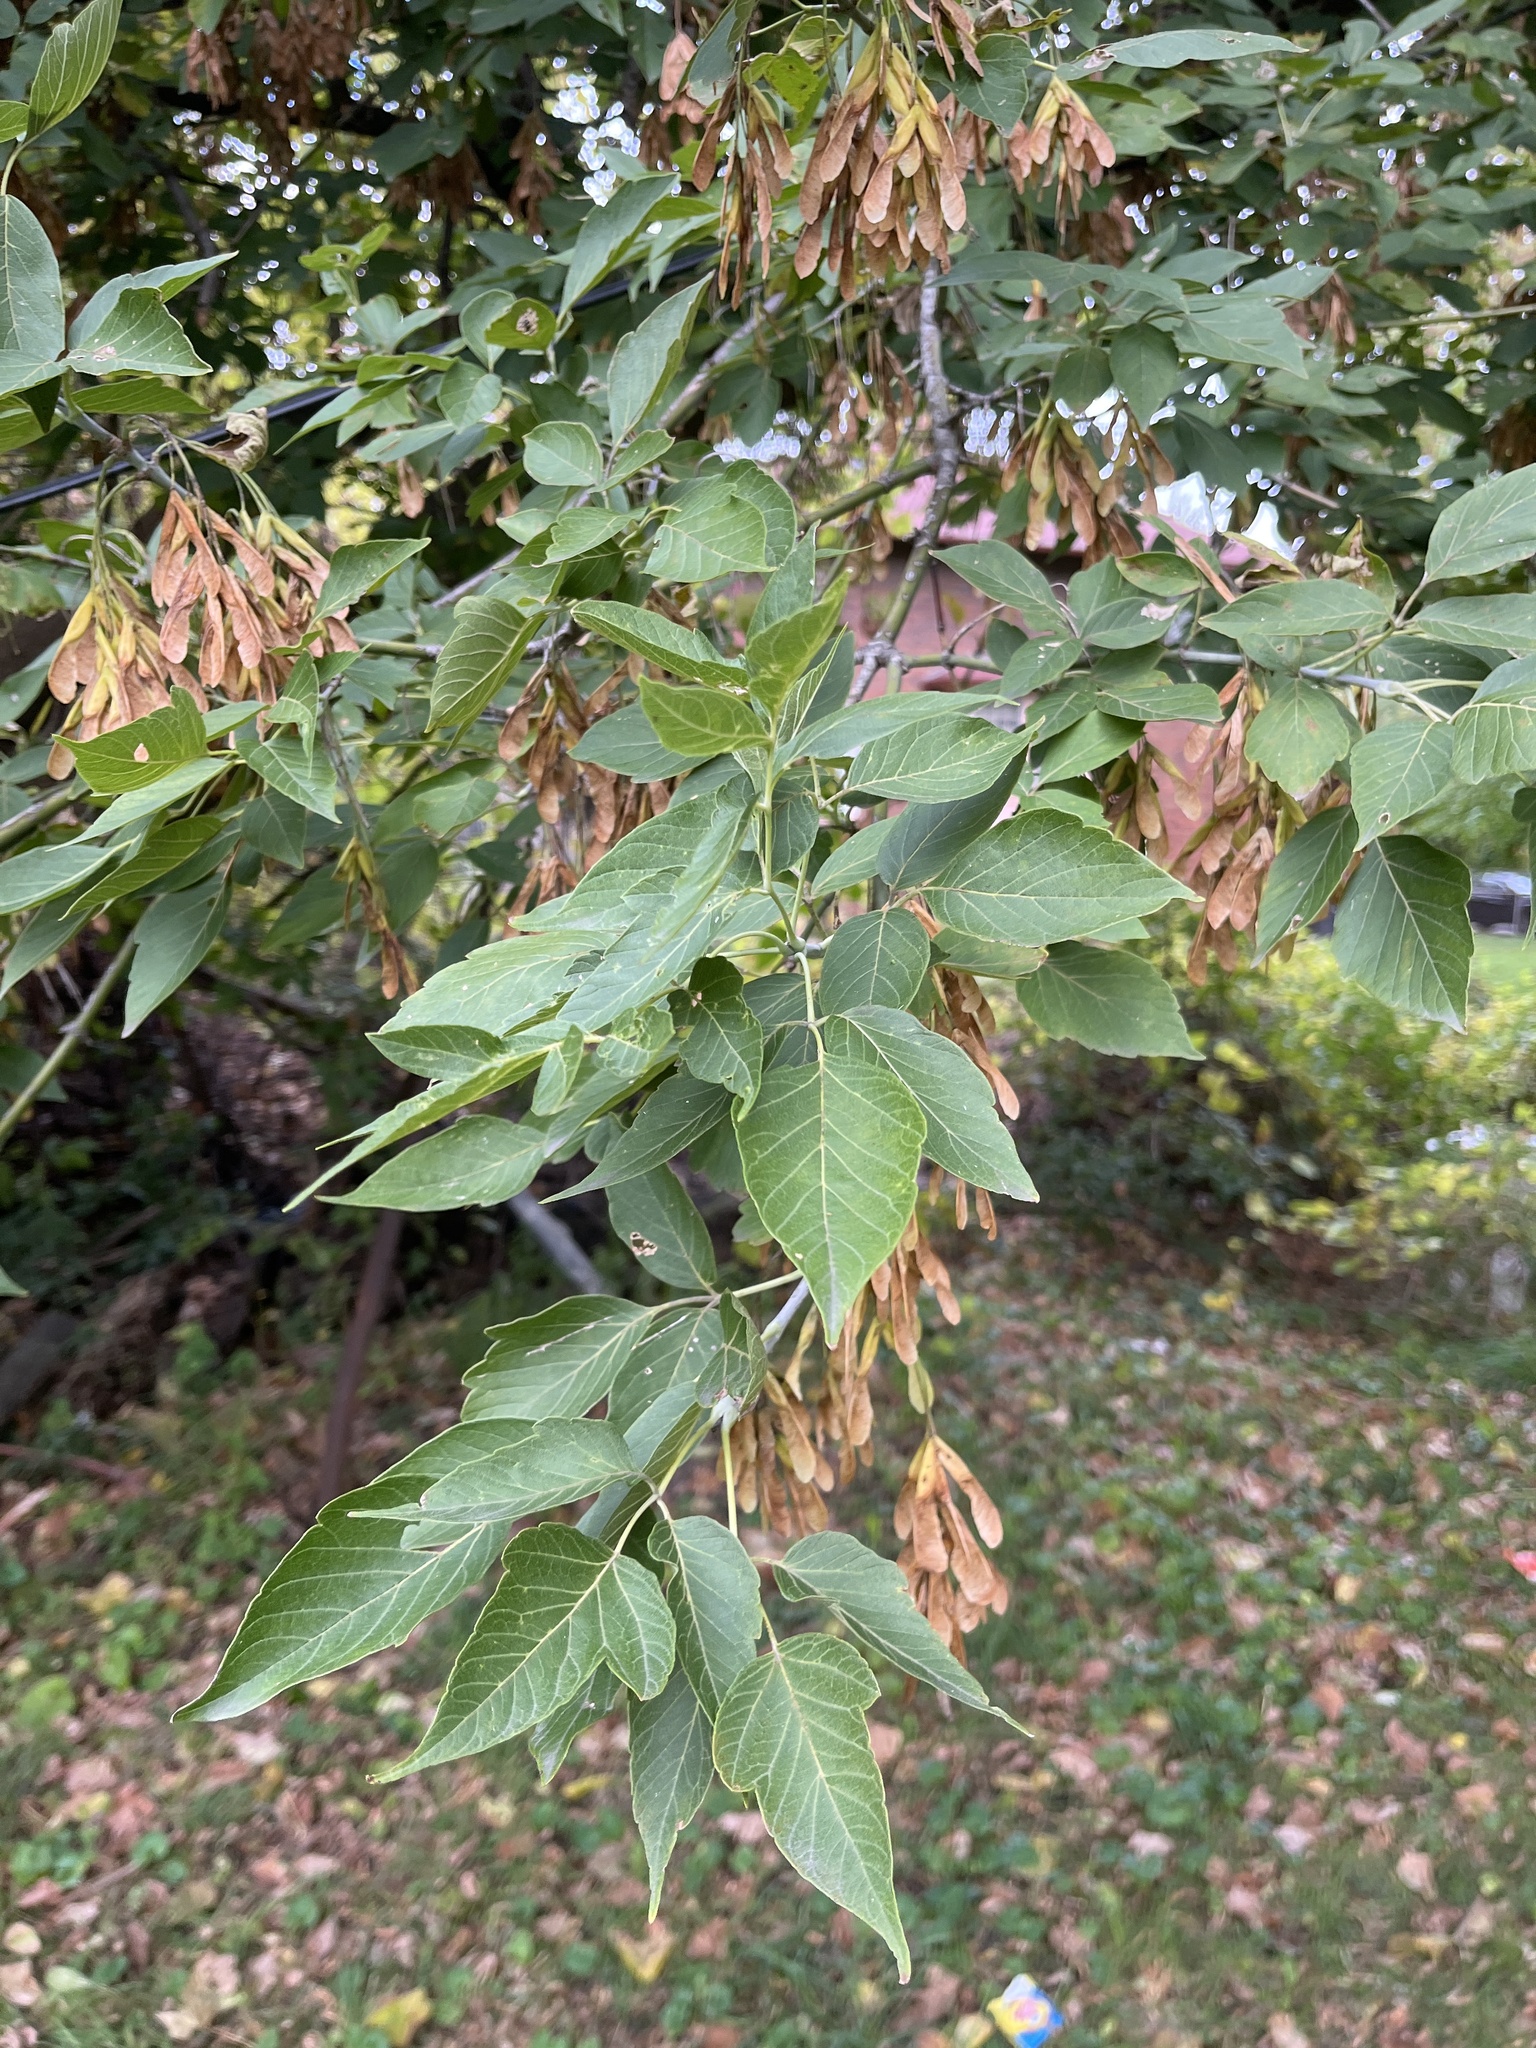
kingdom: Plantae
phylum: Tracheophyta
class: Magnoliopsida
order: Sapindales
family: Sapindaceae
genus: Acer
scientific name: Acer negundo
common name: Ashleaf maple
